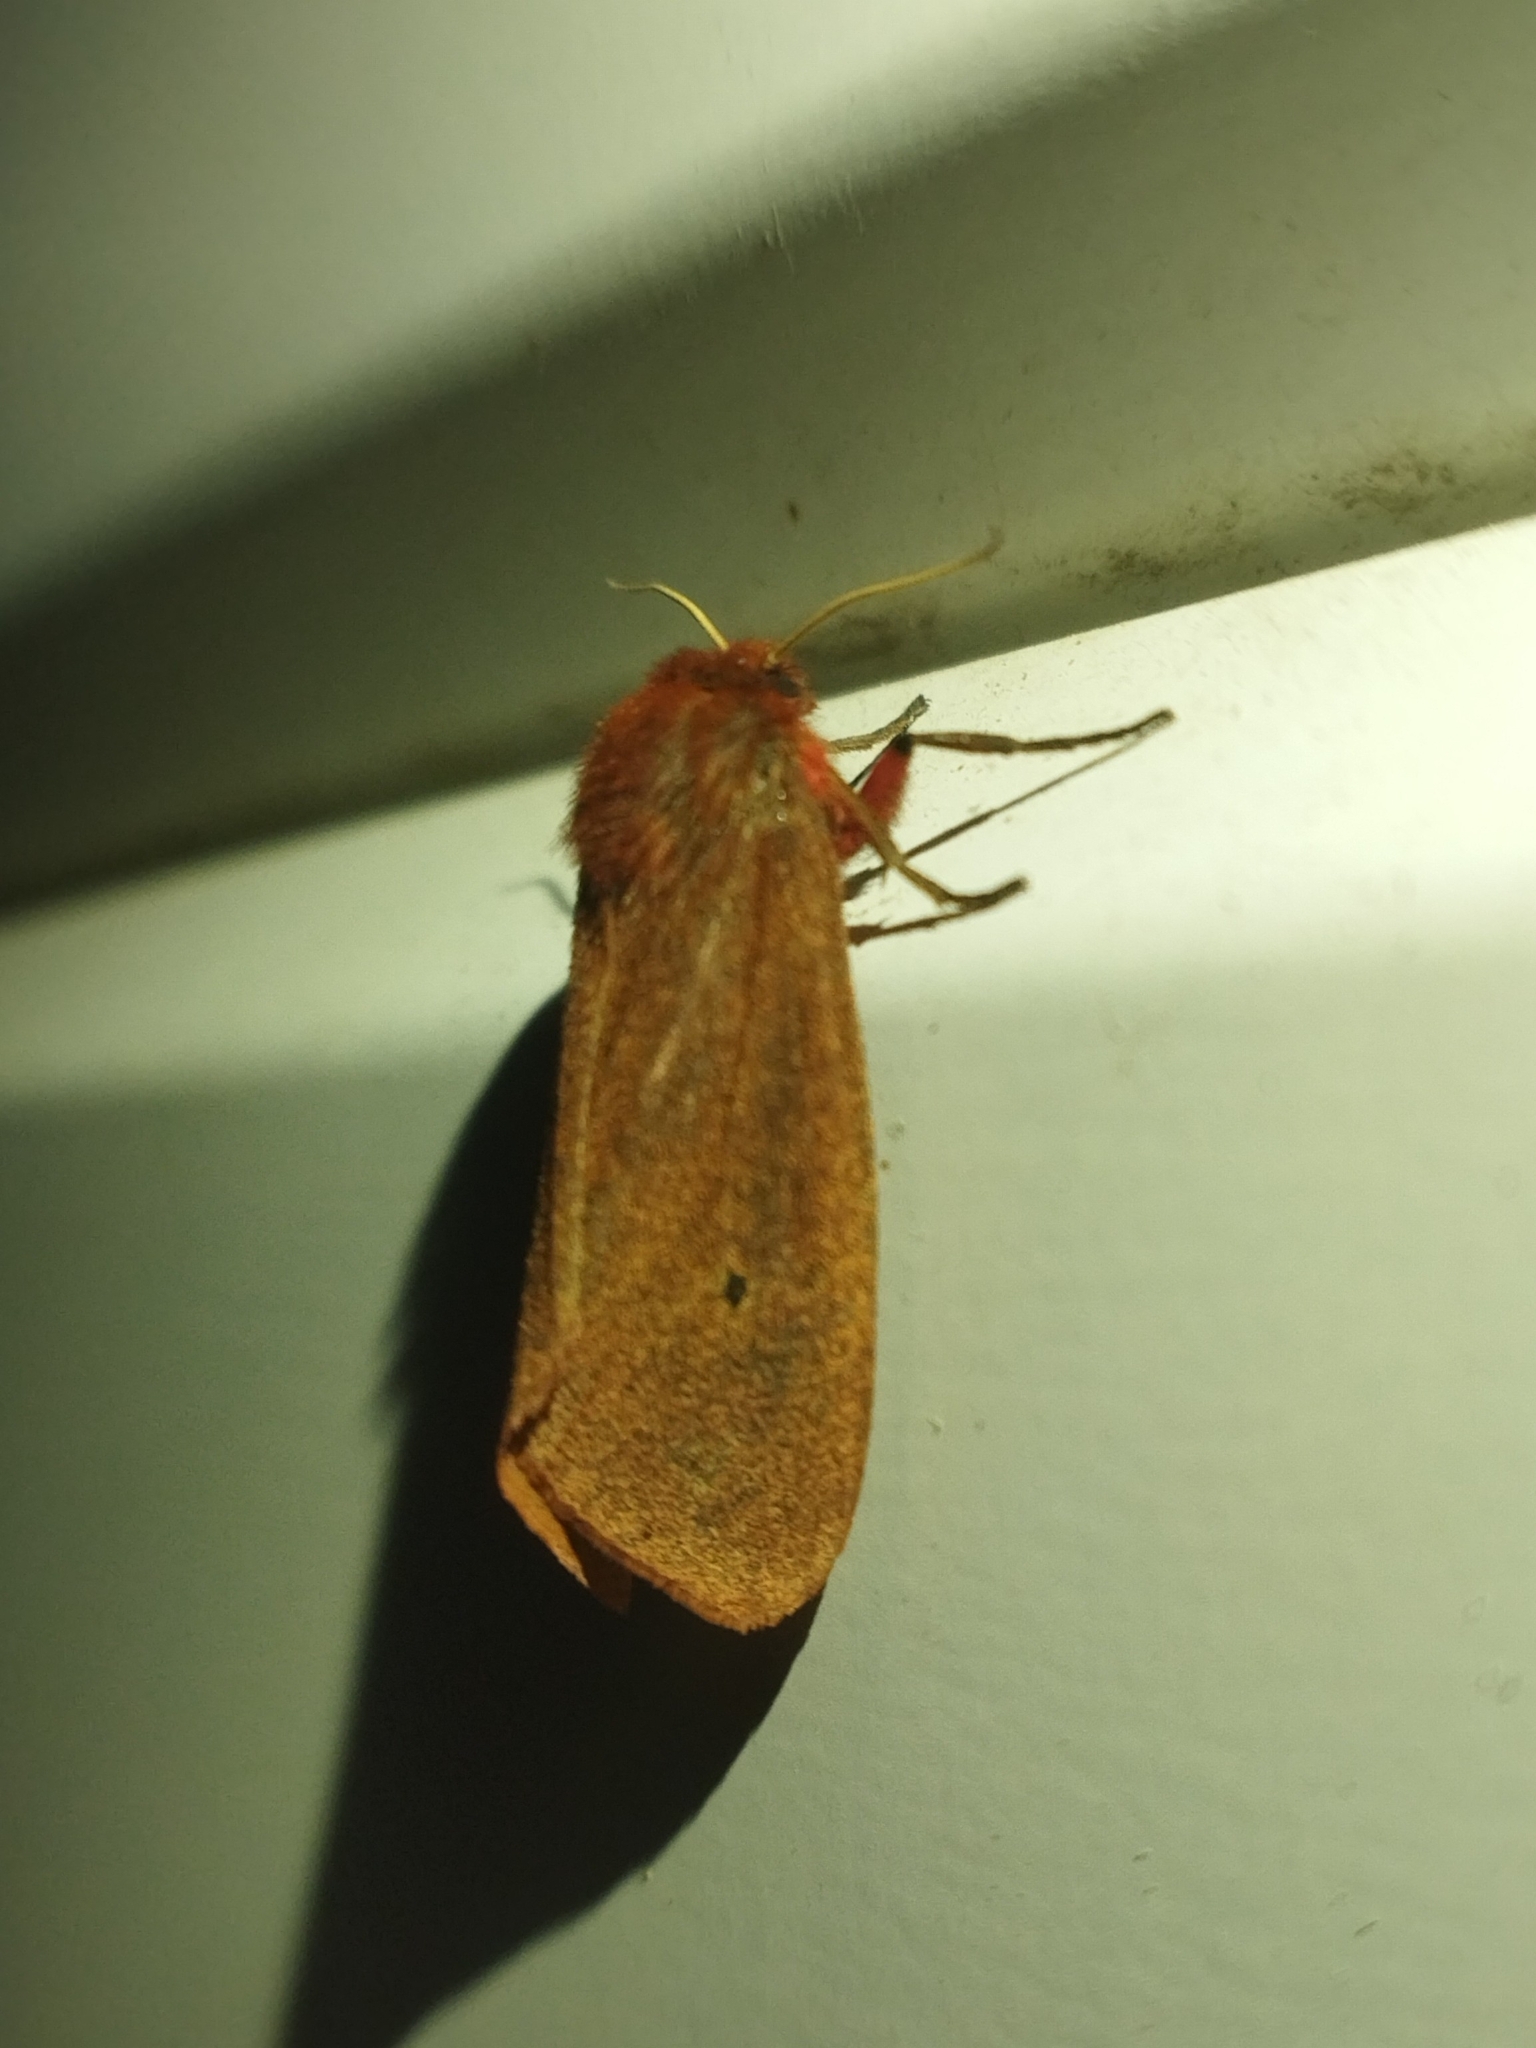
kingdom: Animalia
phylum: Arthropoda
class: Insecta
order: Lepidoptera
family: Erebidae
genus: Phragmatobia
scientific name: Phragmatobia fuliginosa
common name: Ruby tiger
